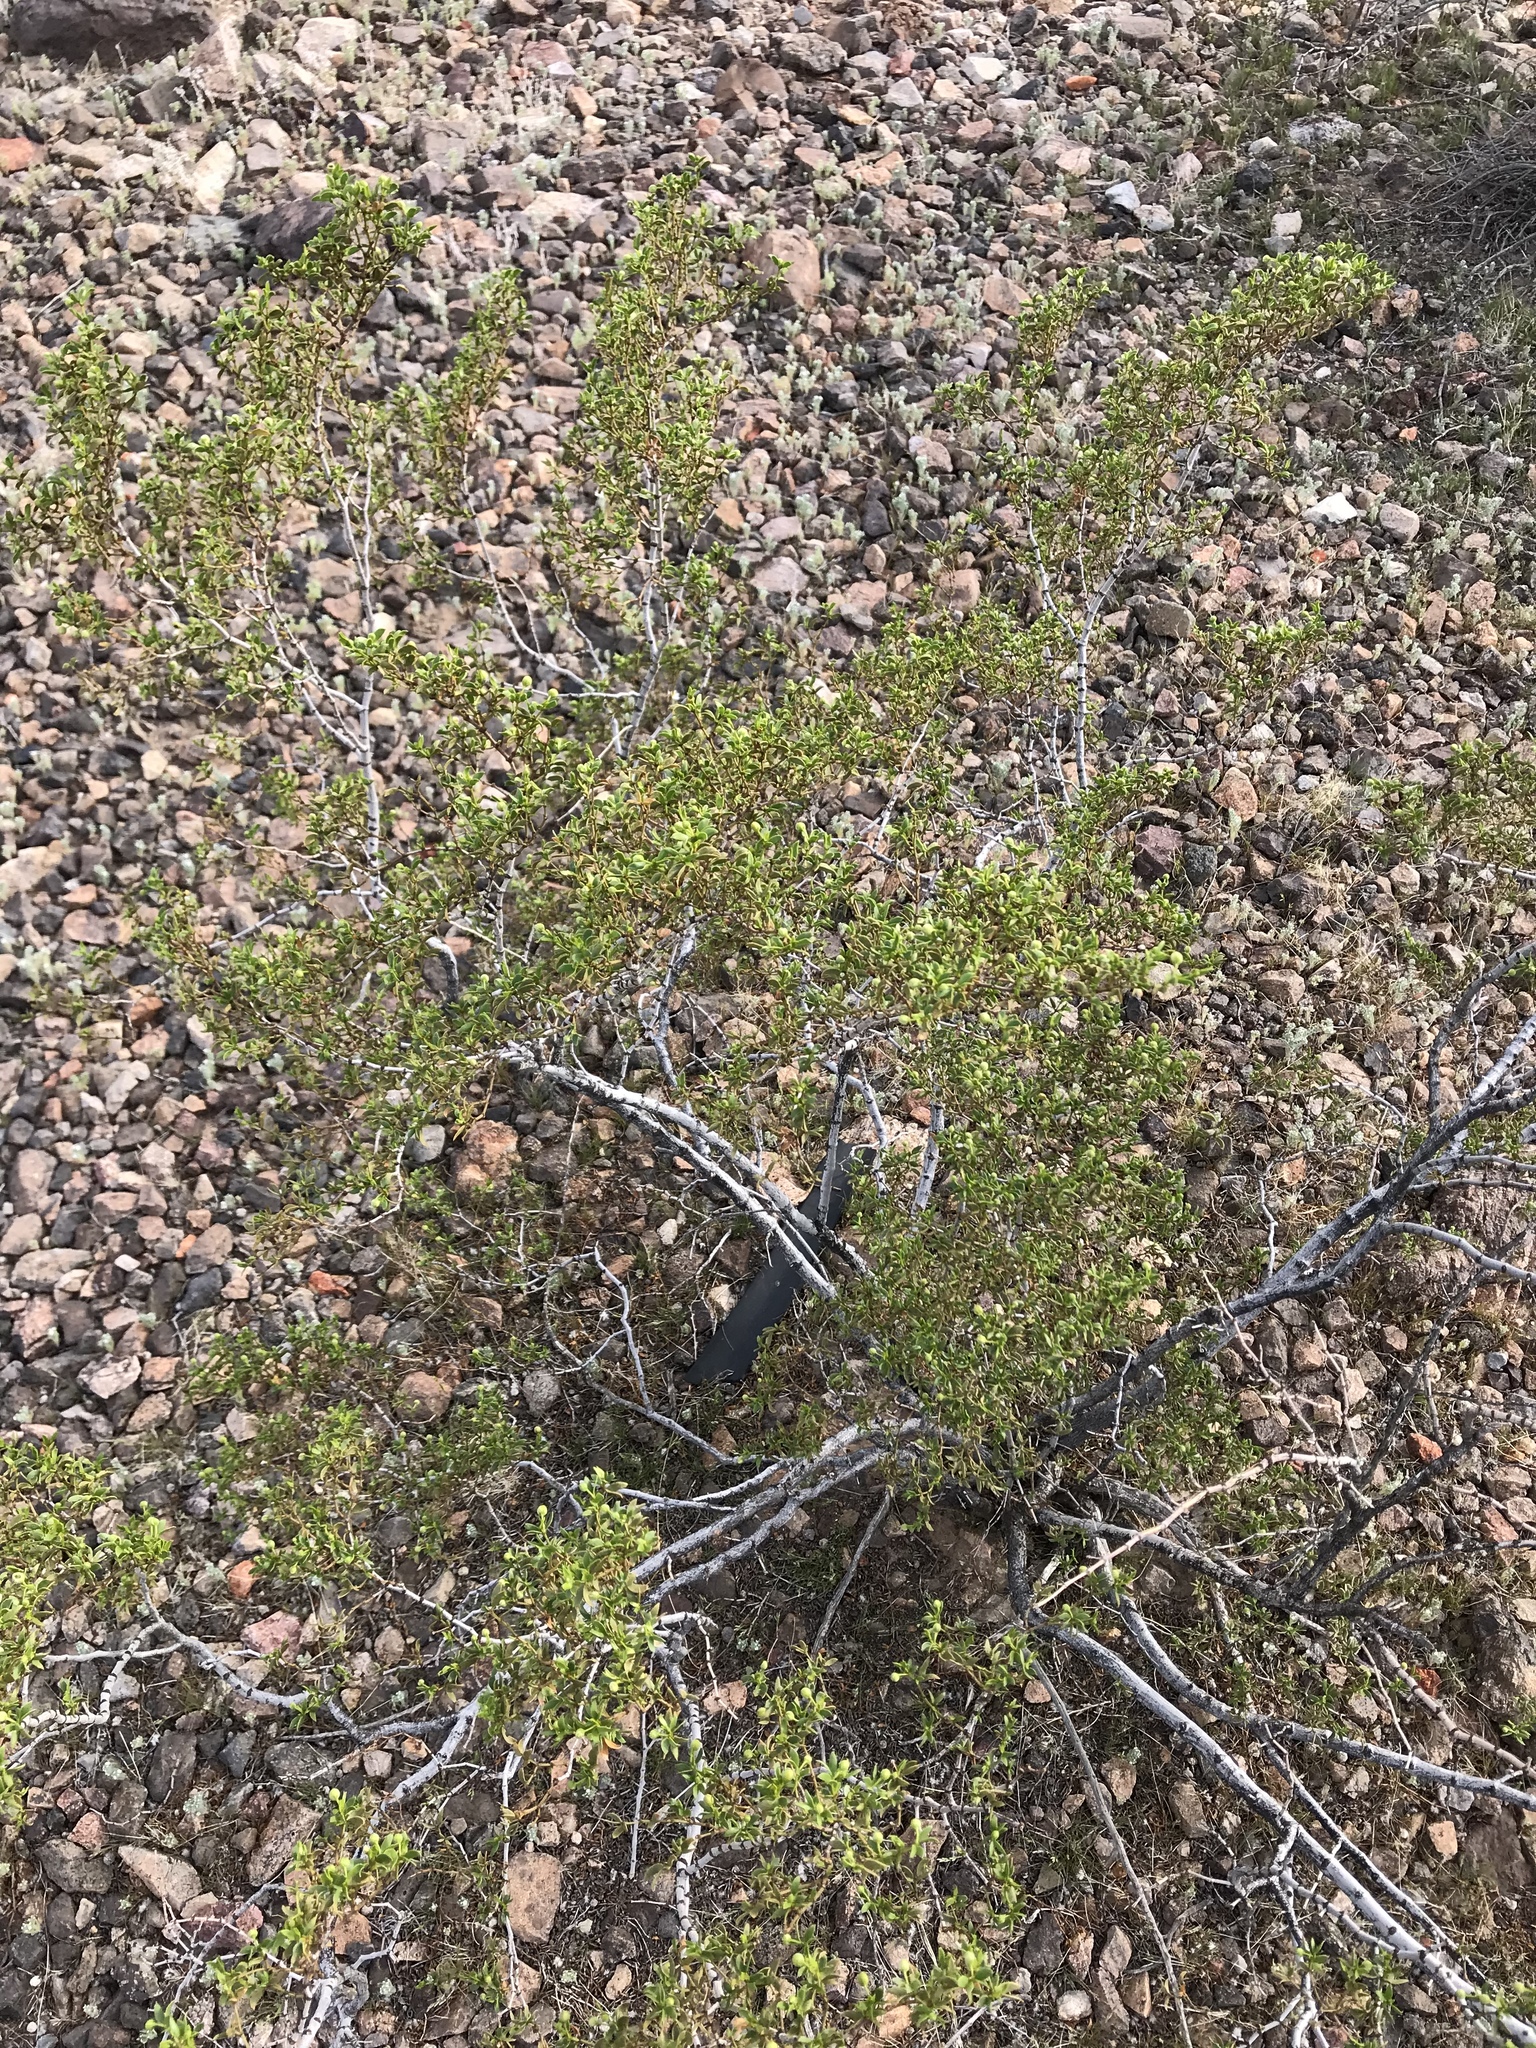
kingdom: Plantae
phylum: Tracheophyta
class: Magnoliopsida
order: Zygophyllales
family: Zygophyllaceae
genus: Larrea
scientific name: Larrea tridentata
